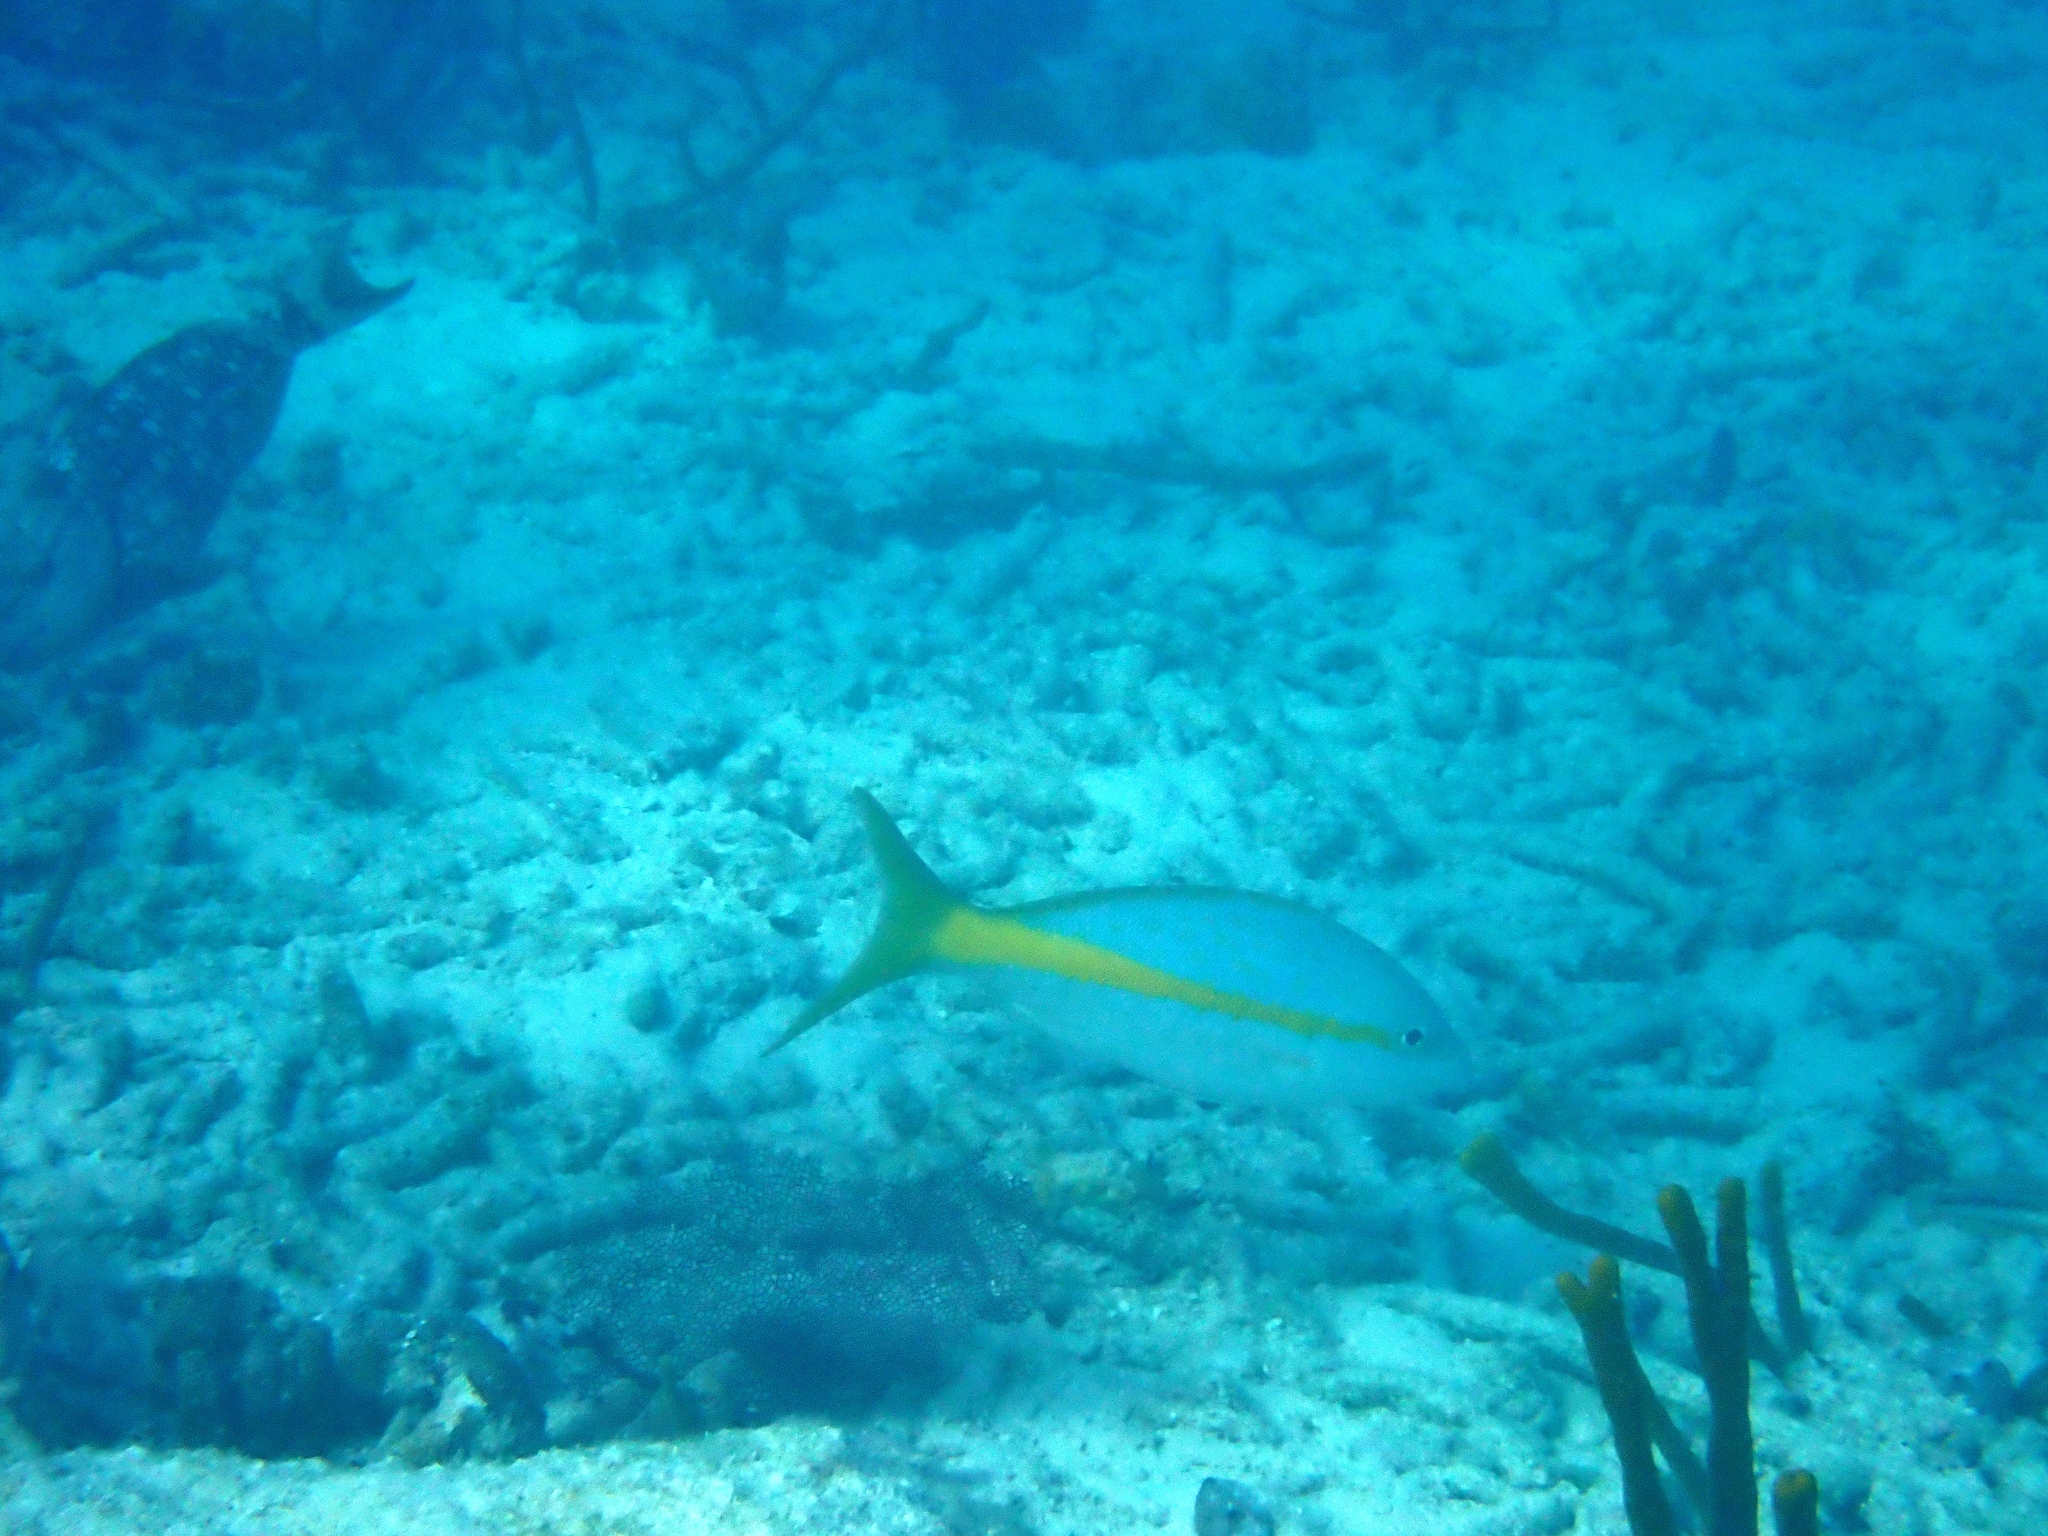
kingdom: Animalia
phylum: Chordata
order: Perciformes
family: Lutjanidae
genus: Ocyurus
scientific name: Ocyurus chrysurus
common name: Yellowtail snapper
